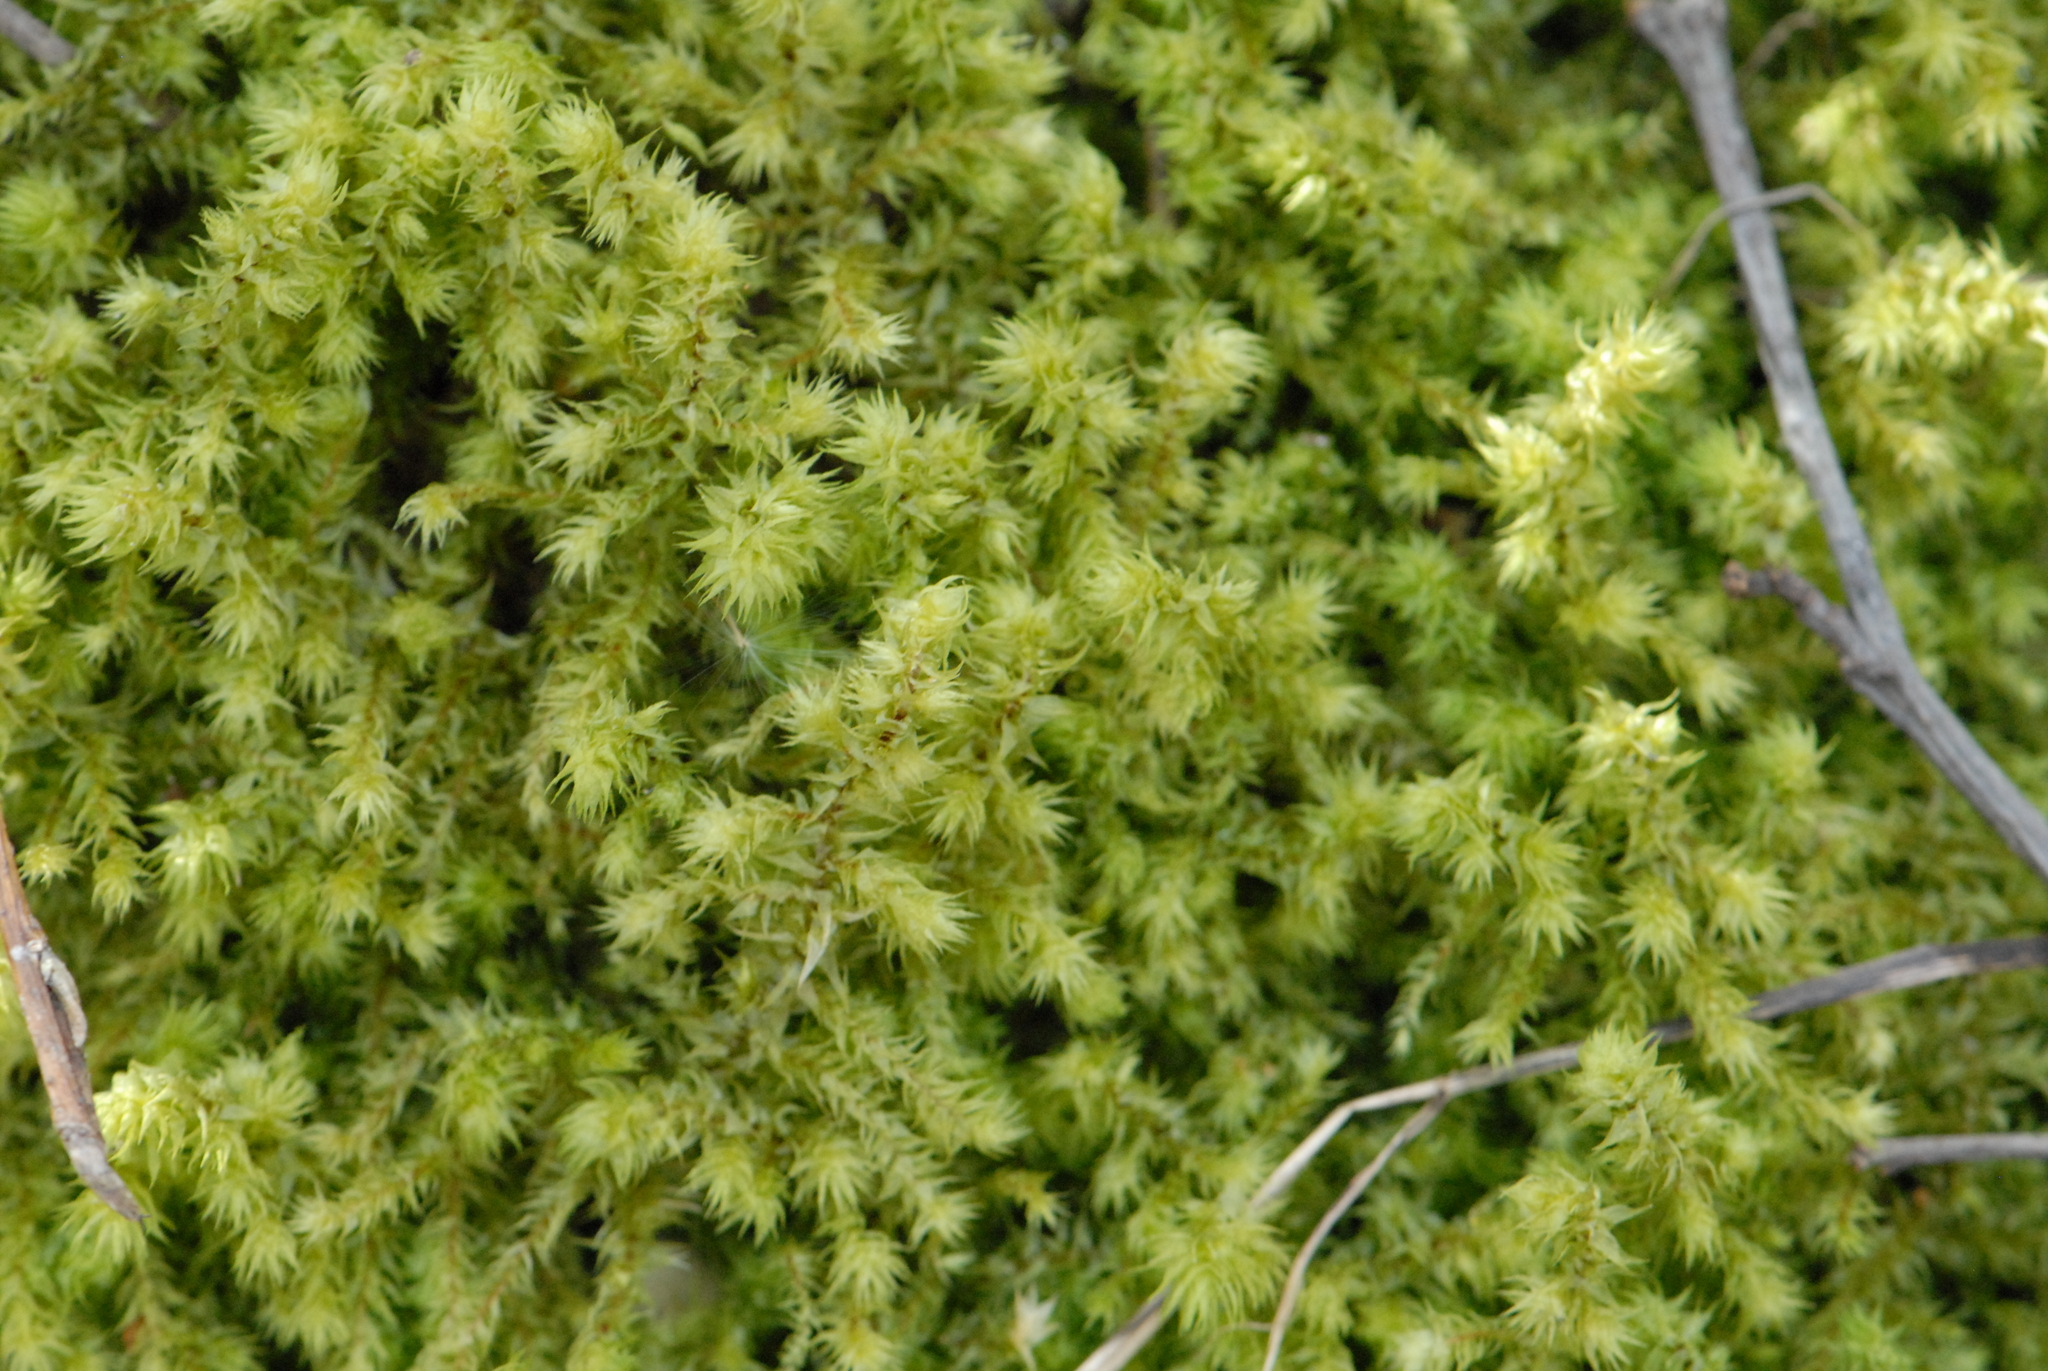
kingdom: Plantae
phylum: Bryophyta
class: Bryopsida
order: Hypnales
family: Hylocomiaceae
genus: Hylocomiadelphus
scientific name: Hylocomiadelphus triquetrus
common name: Rough goose neck moss
